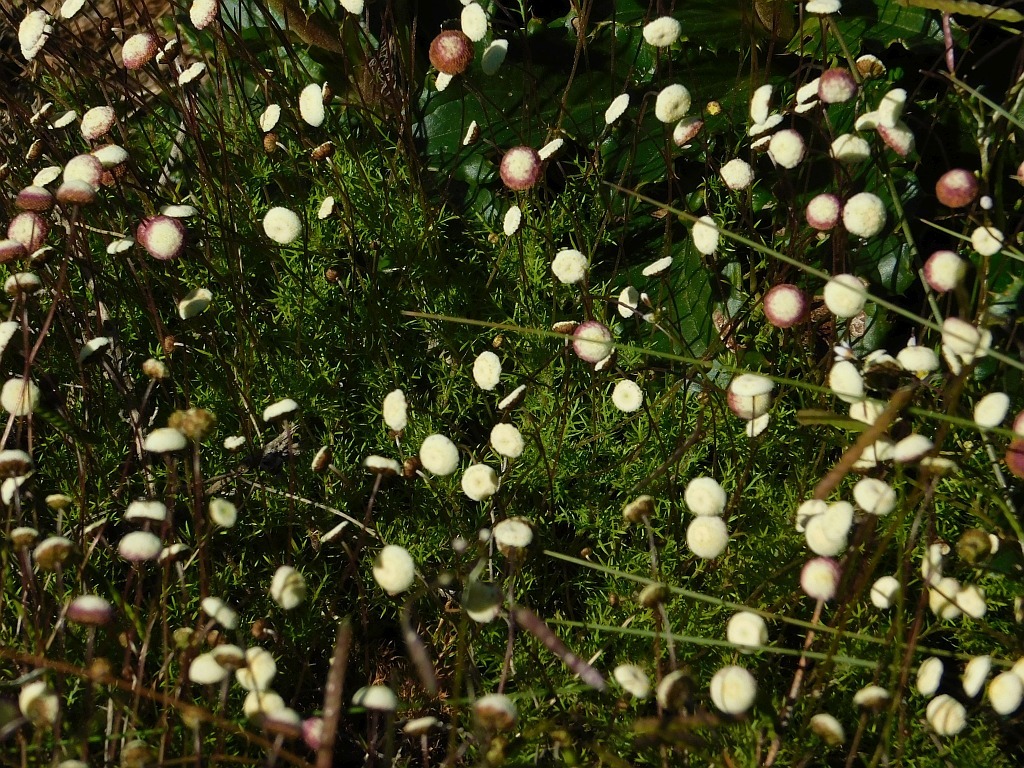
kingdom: Plantae
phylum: Tracheophyta
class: Magnoliopsida
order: Asterales
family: Asteraceae
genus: Cotula
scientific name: Cotula ceniifolia
